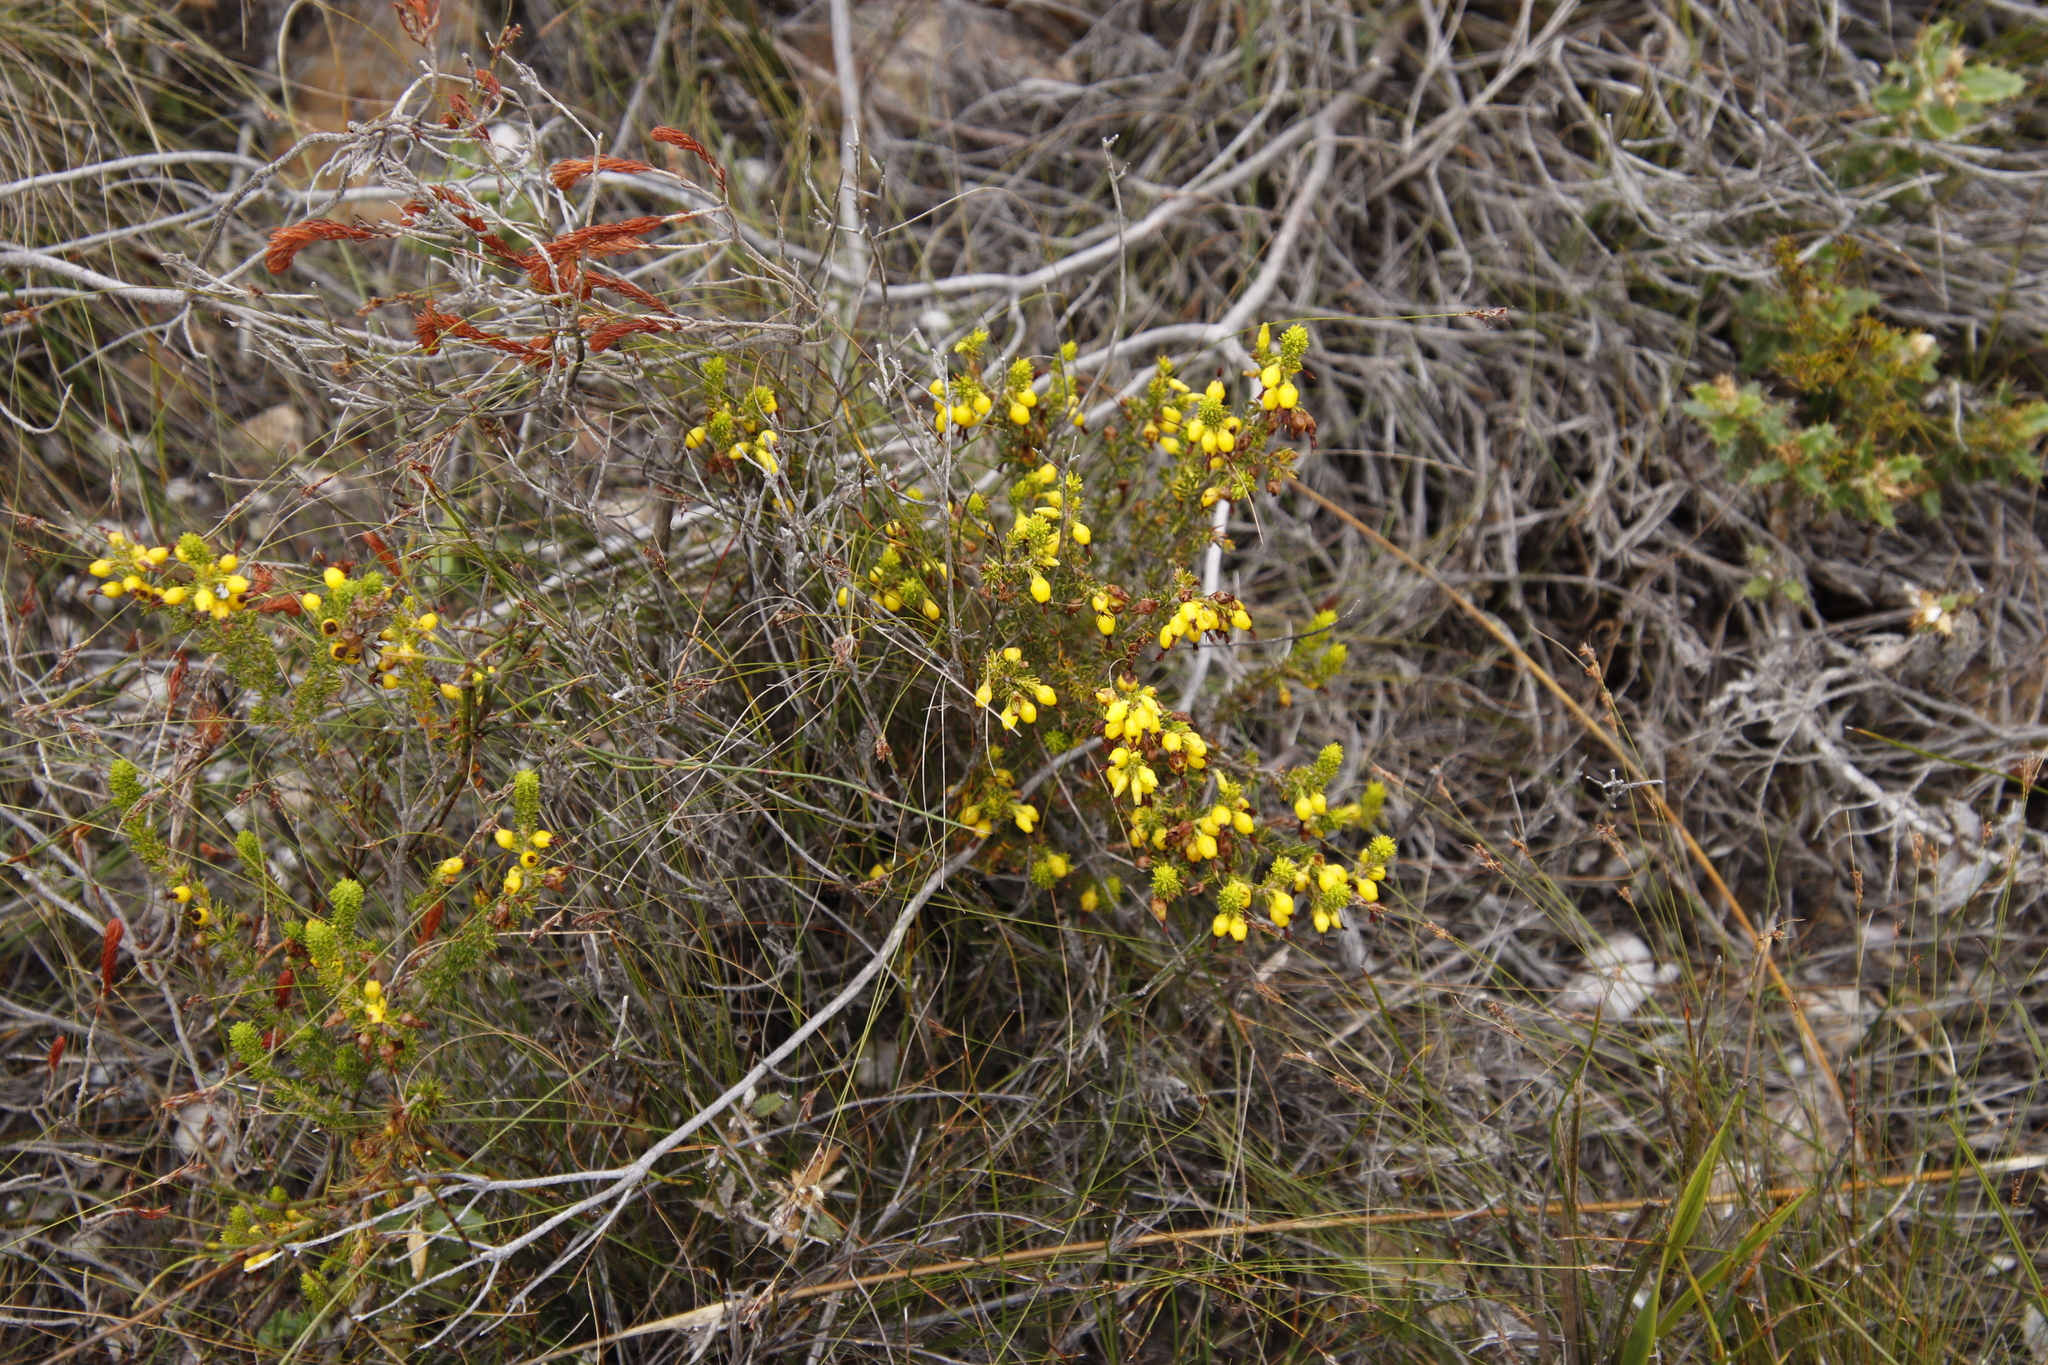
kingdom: Plantae
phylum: Tracheophyta
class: Magnoliopsida
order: Ericales
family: Ericaceae
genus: Erica
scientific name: Erica melastoma
